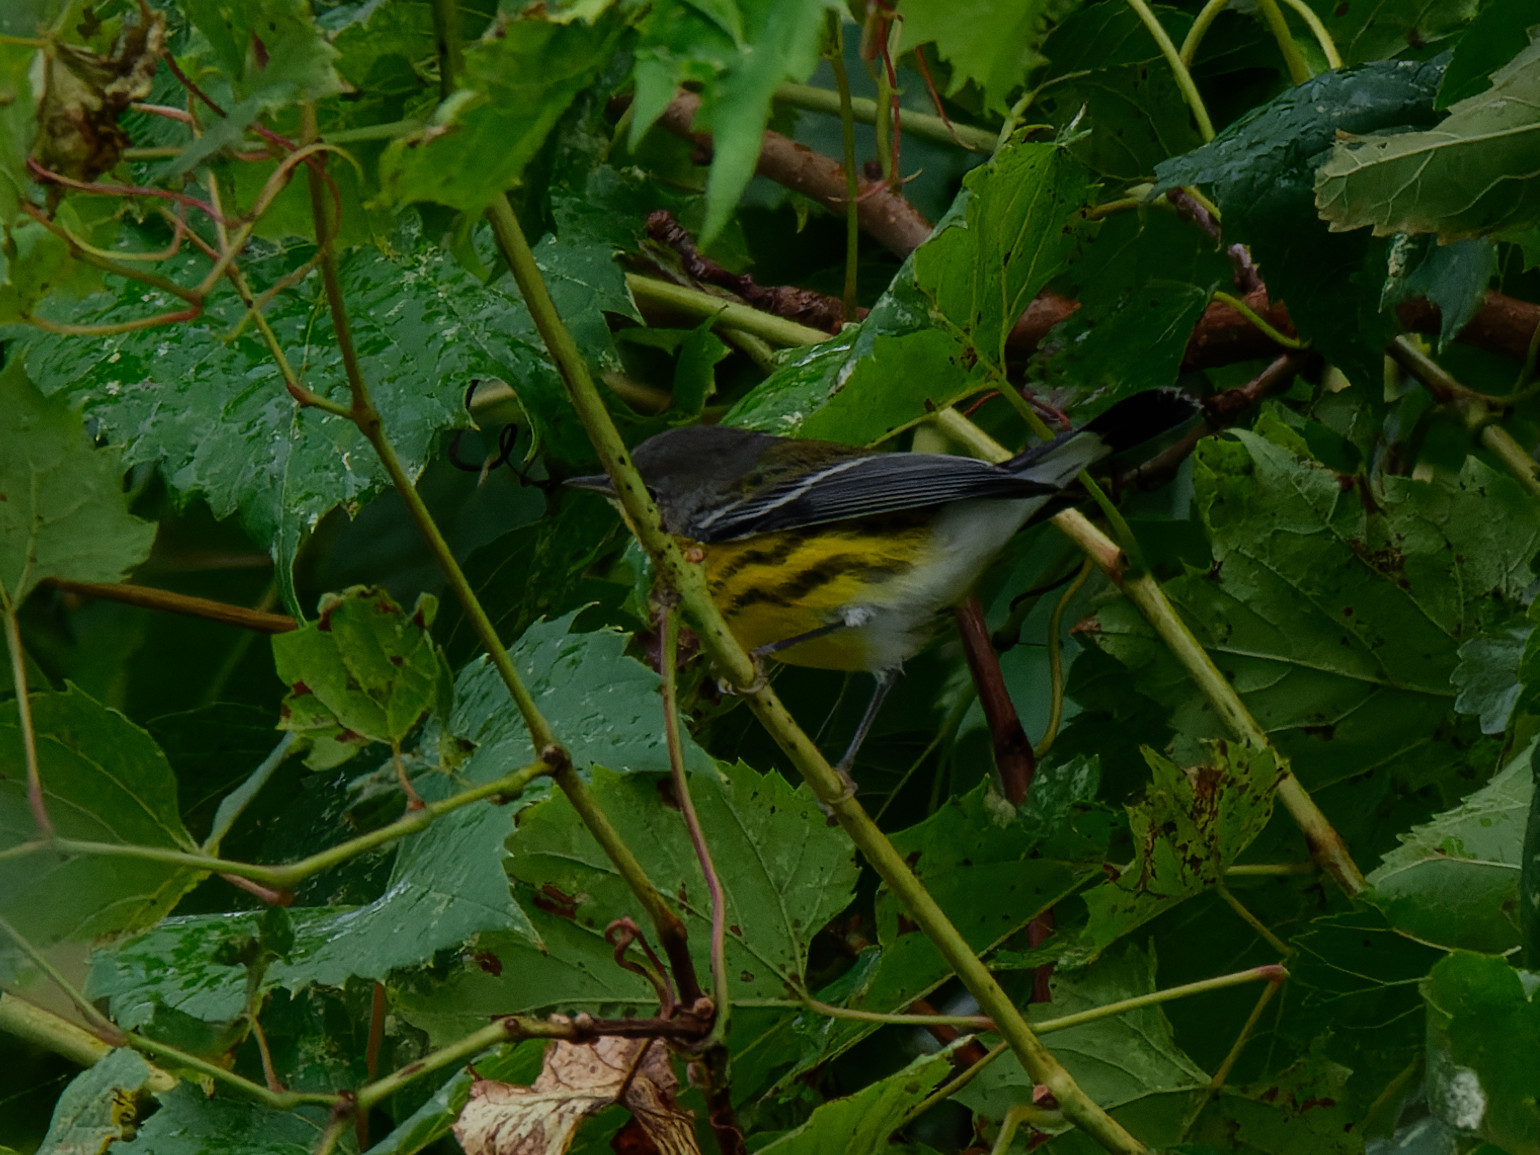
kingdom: Animalia
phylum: Chordata
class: Aves
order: Passeriformes
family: Parulidae
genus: Setophaga
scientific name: Setophaga magnolia
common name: Magnolia warbler
